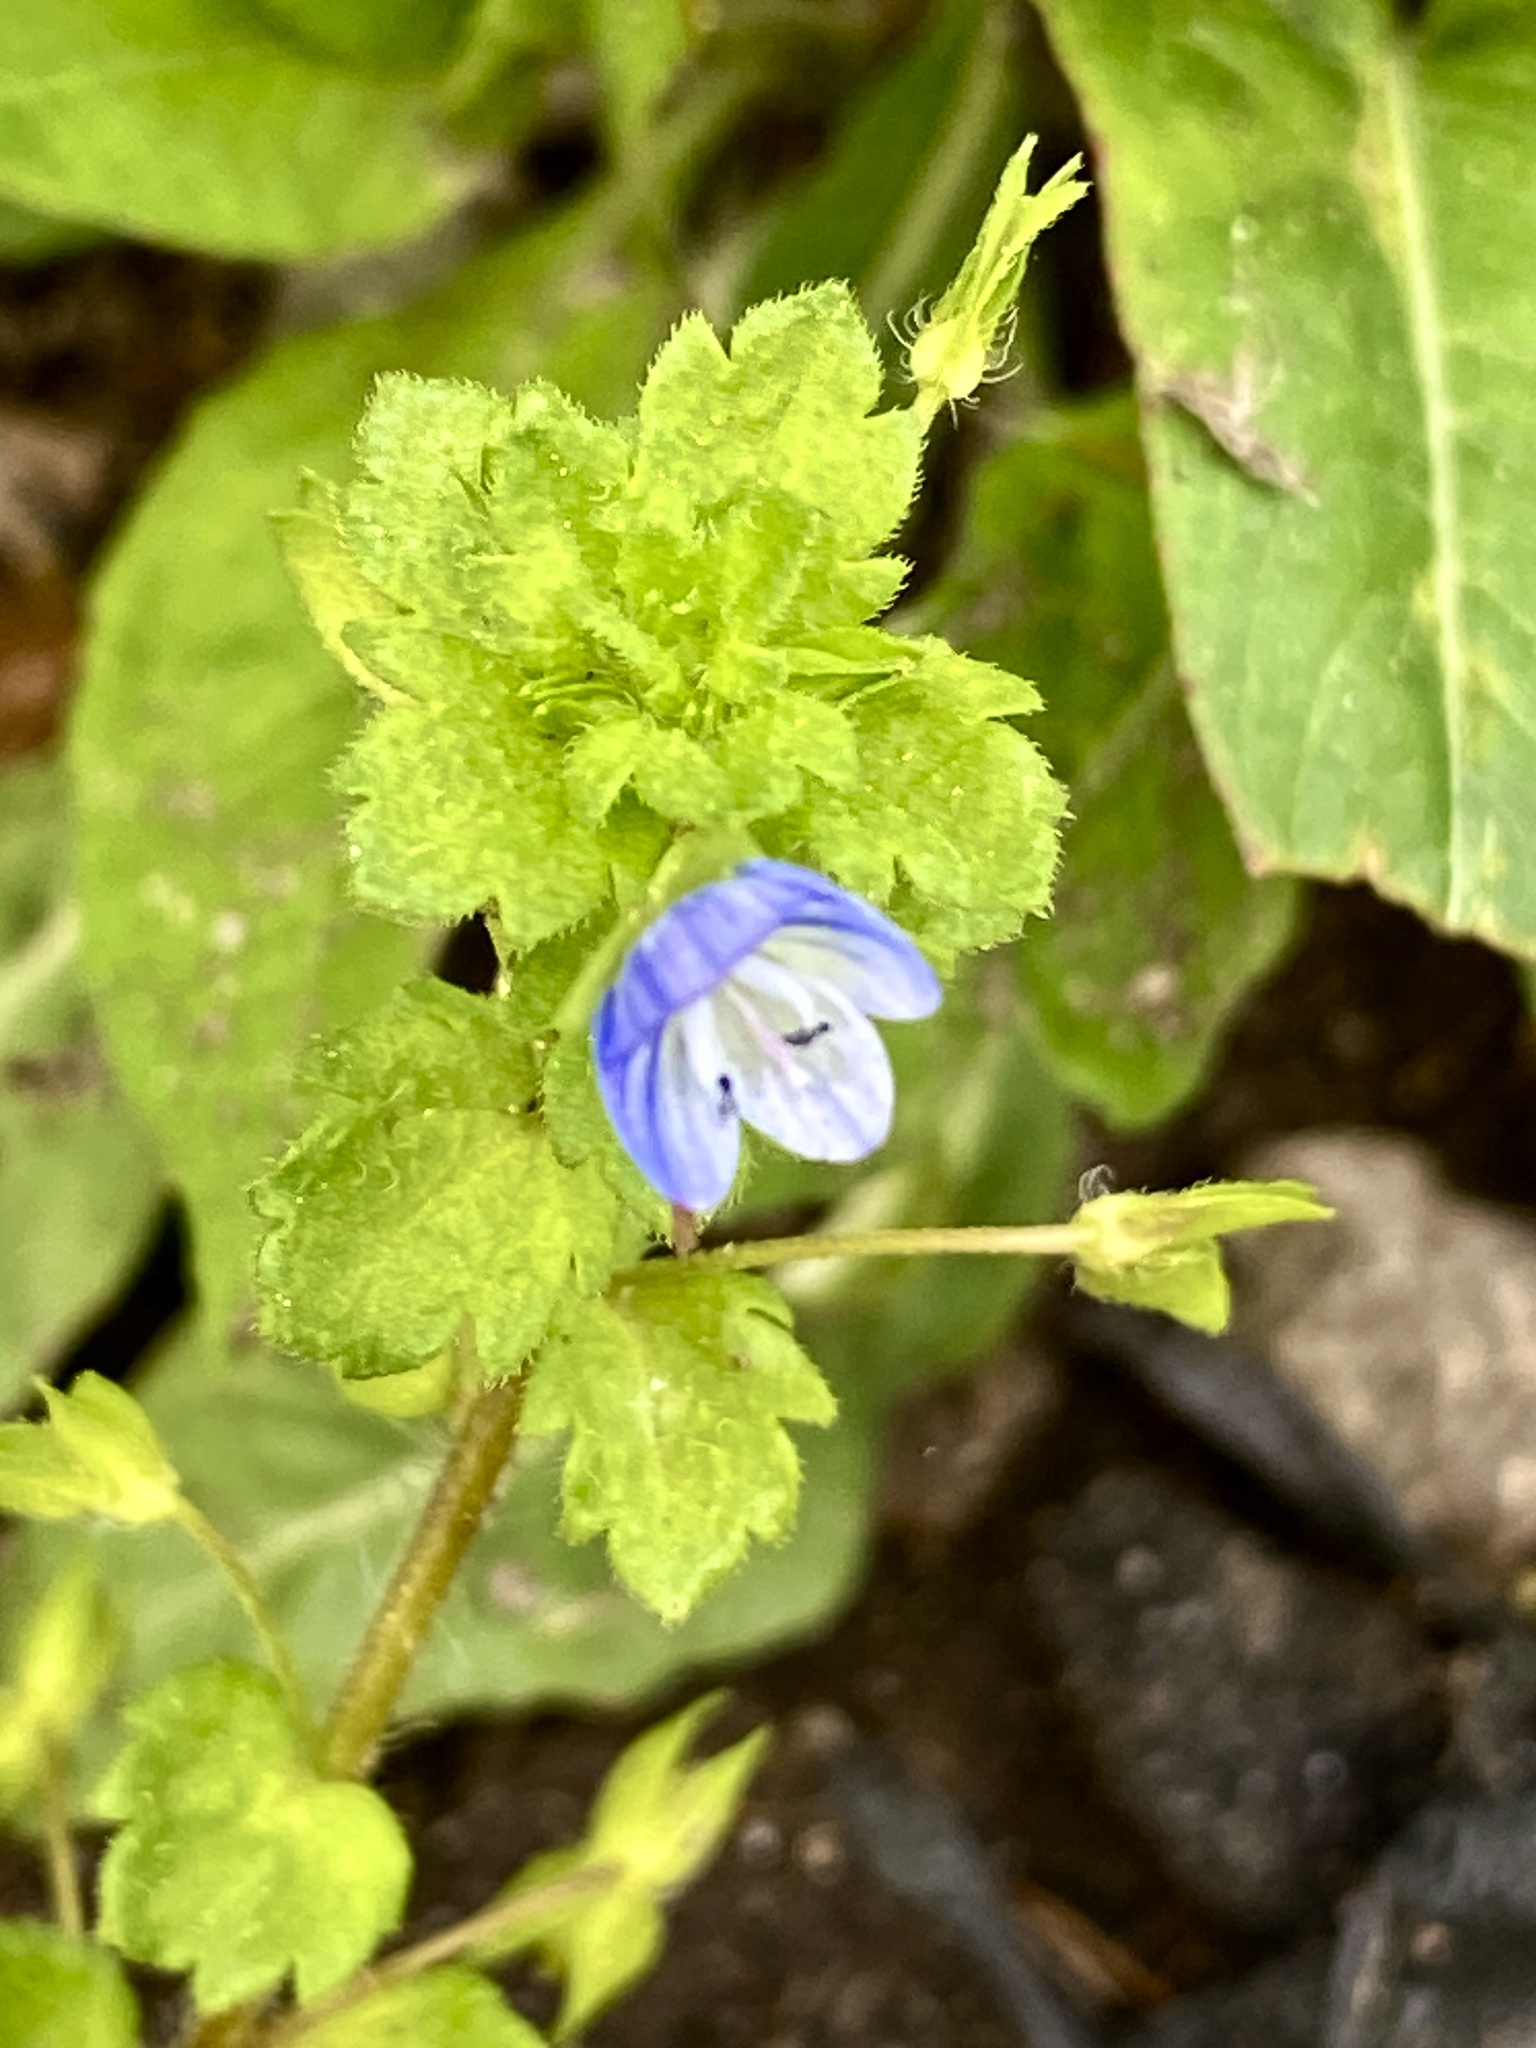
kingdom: Plantae
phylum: Tracheophyta
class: Magnoliopsida
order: Lamiales
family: Plantaginaceae
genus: Veronica
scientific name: Veronica persica
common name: Common field-speedwell
